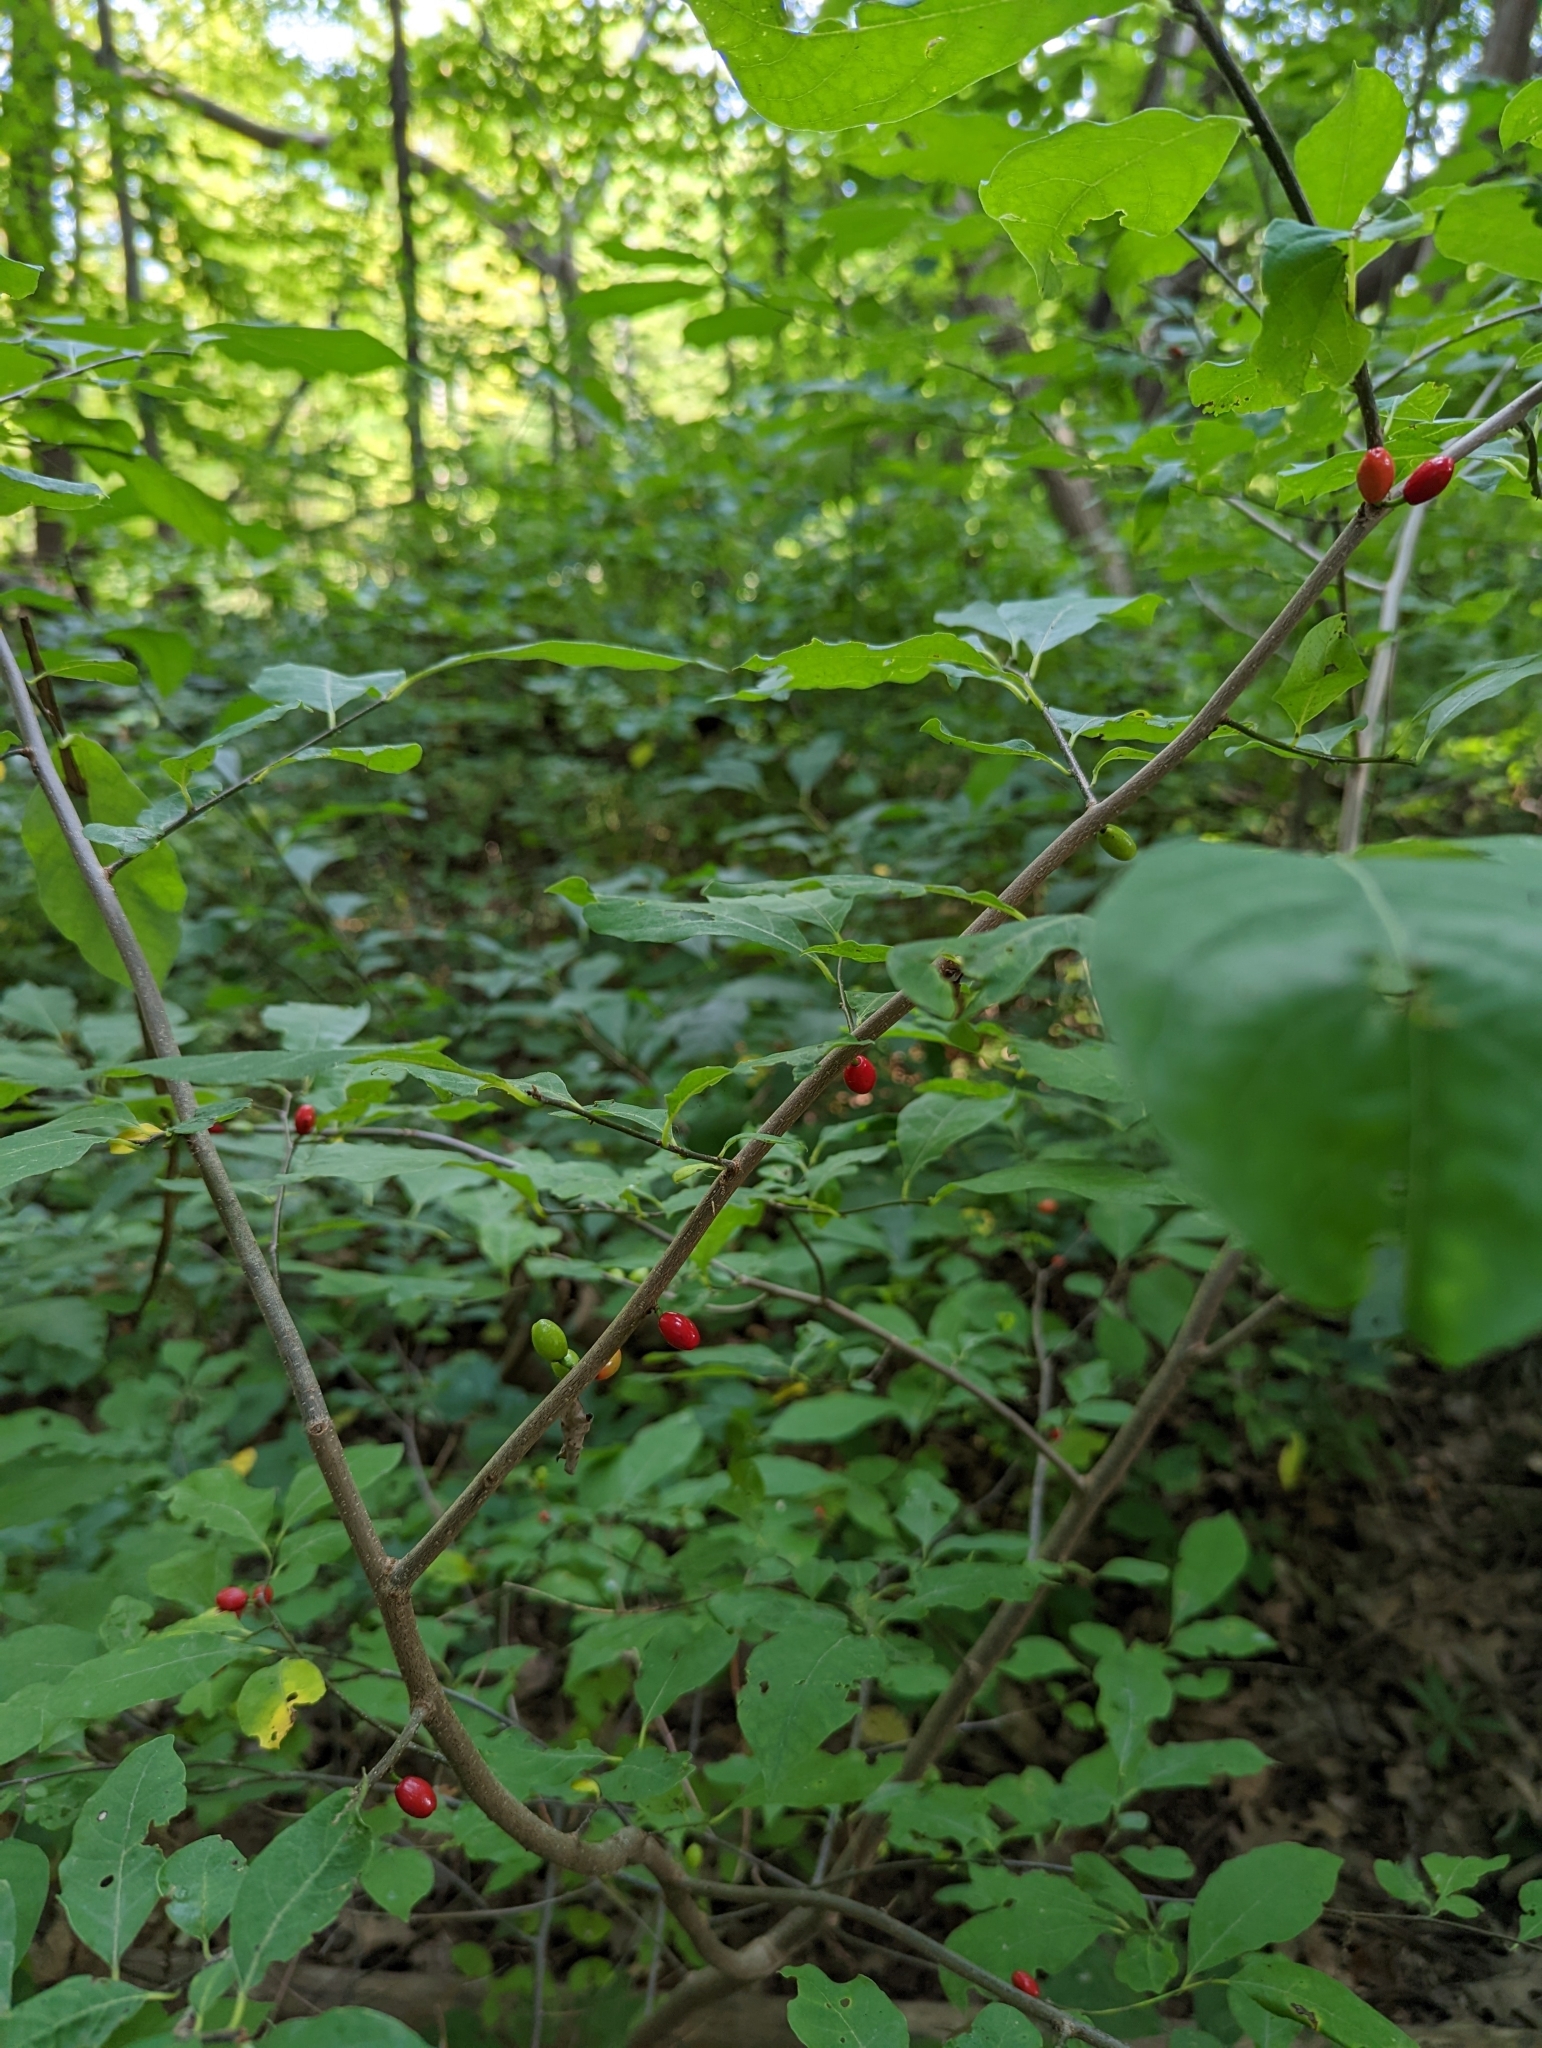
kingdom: Plantae
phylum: Tracheophyta
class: Magnoliopsida
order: Laurales
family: Lauraceae
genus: Lindera
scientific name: Lindera benzoin
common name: Spicebush
